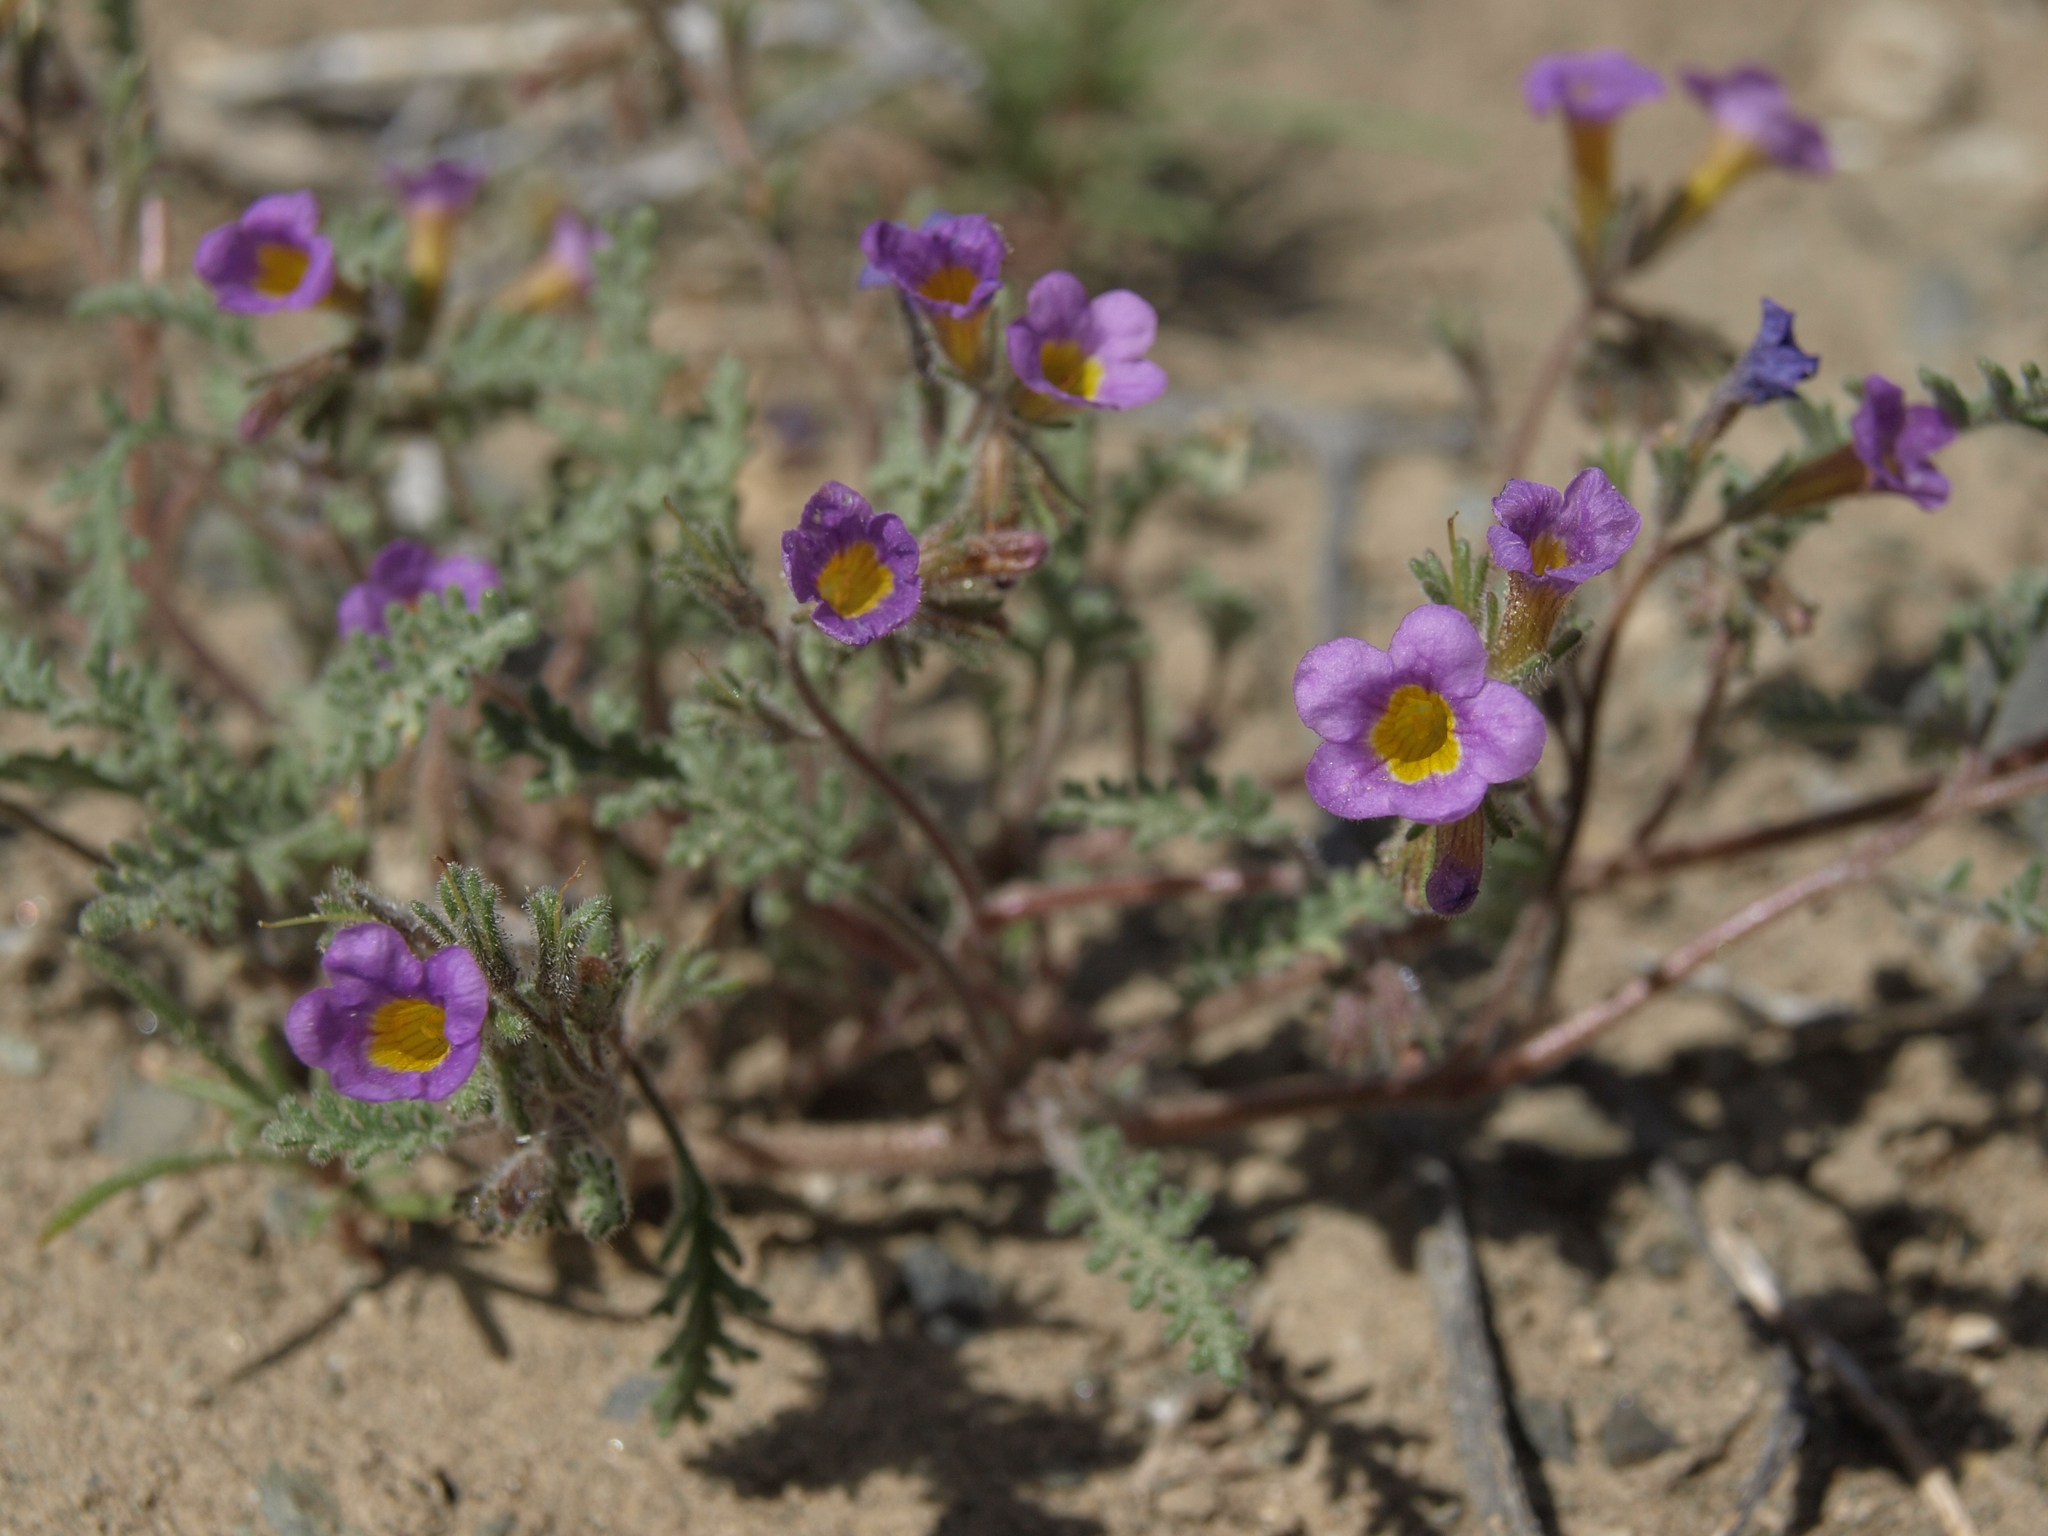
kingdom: Plantae
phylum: Tracheophyta
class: Magnoliopsida
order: Boraginales
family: Hydrophyllaceae
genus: Phacelia
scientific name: Phacelia bicolor
